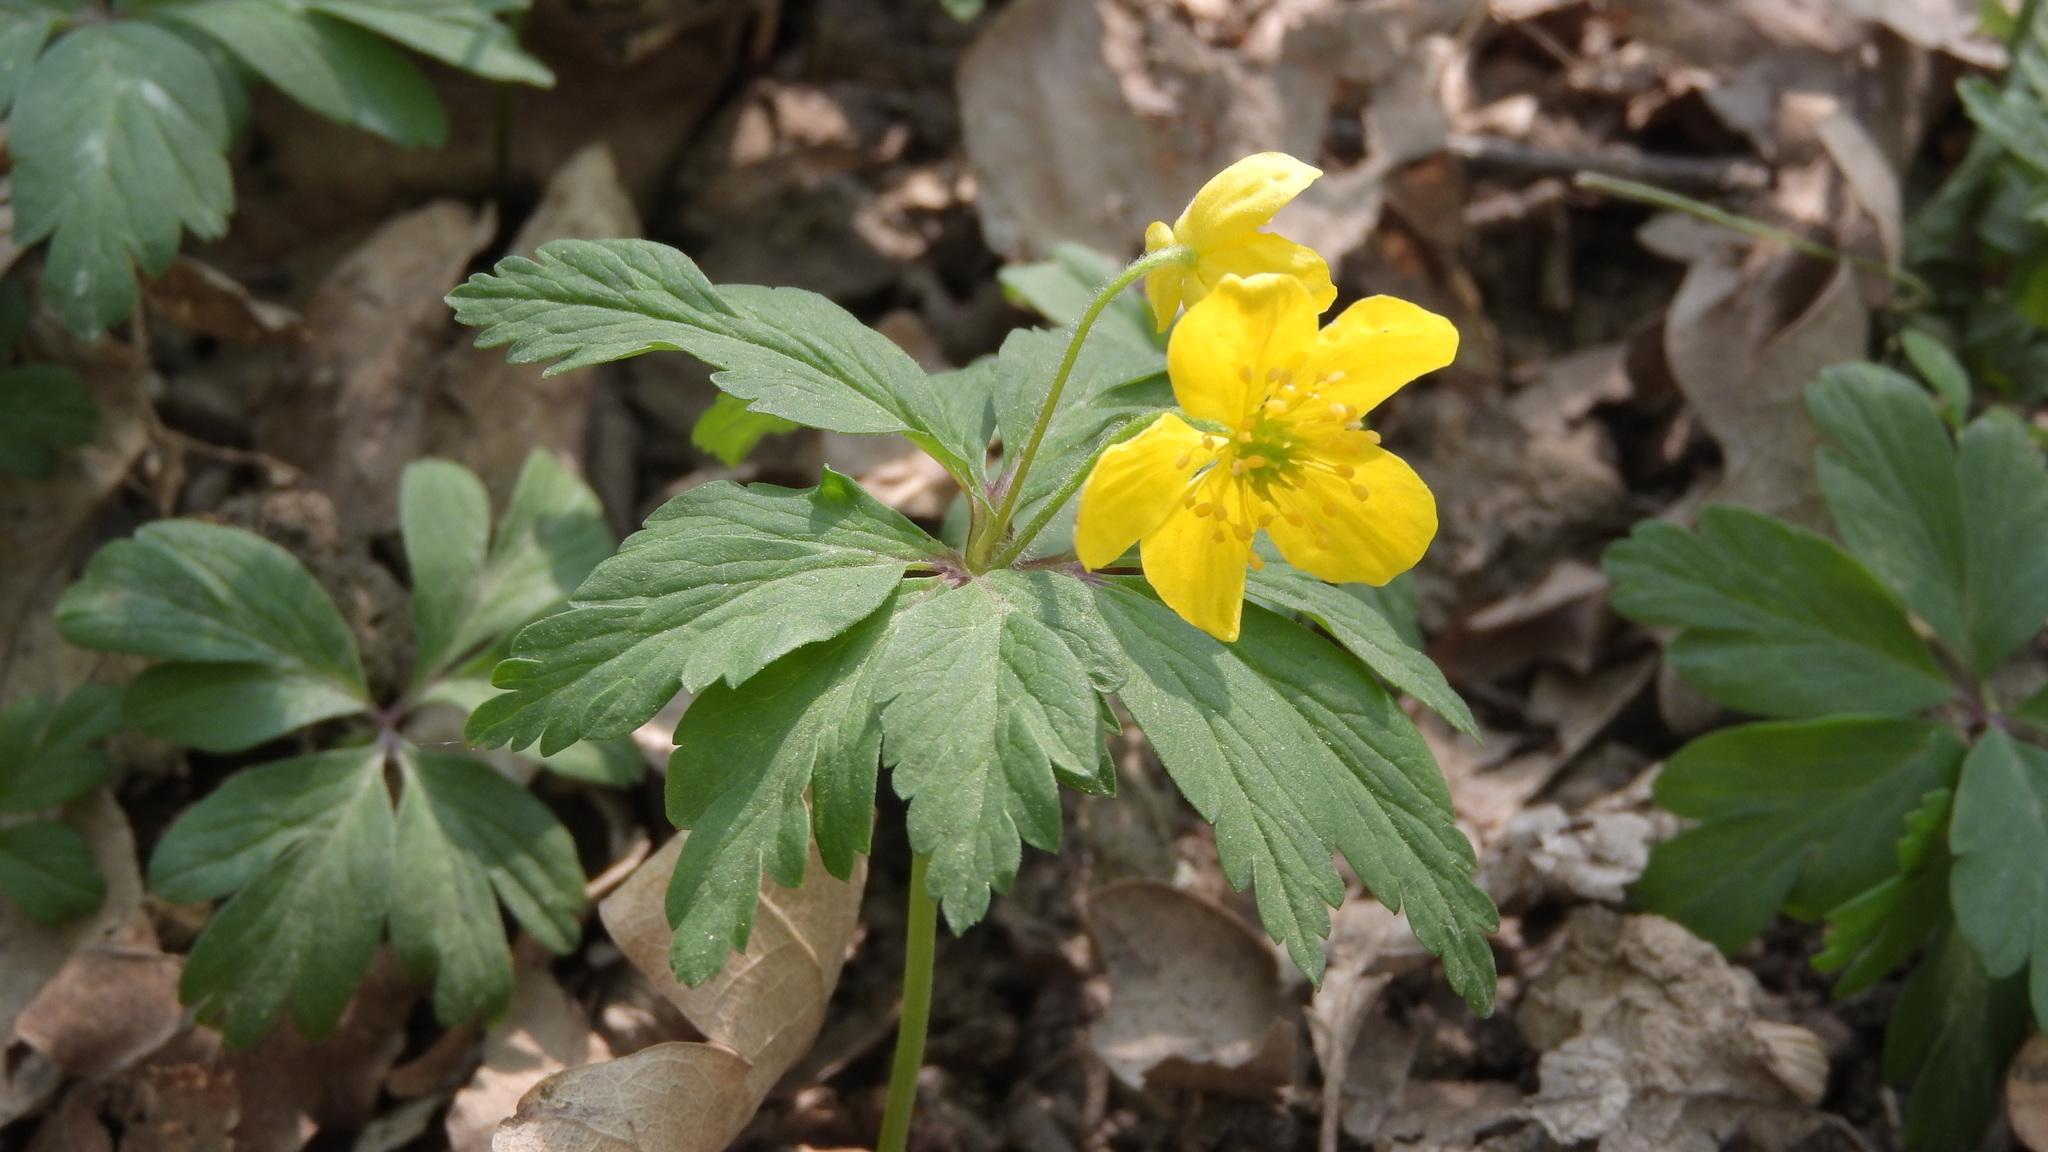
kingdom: Plantae
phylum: Tracheophyta
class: Magnoliopsida
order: Ranunculales
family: Ranunculaceae
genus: Anemone
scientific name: Anemone ranunculoides
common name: Yellow anemone
